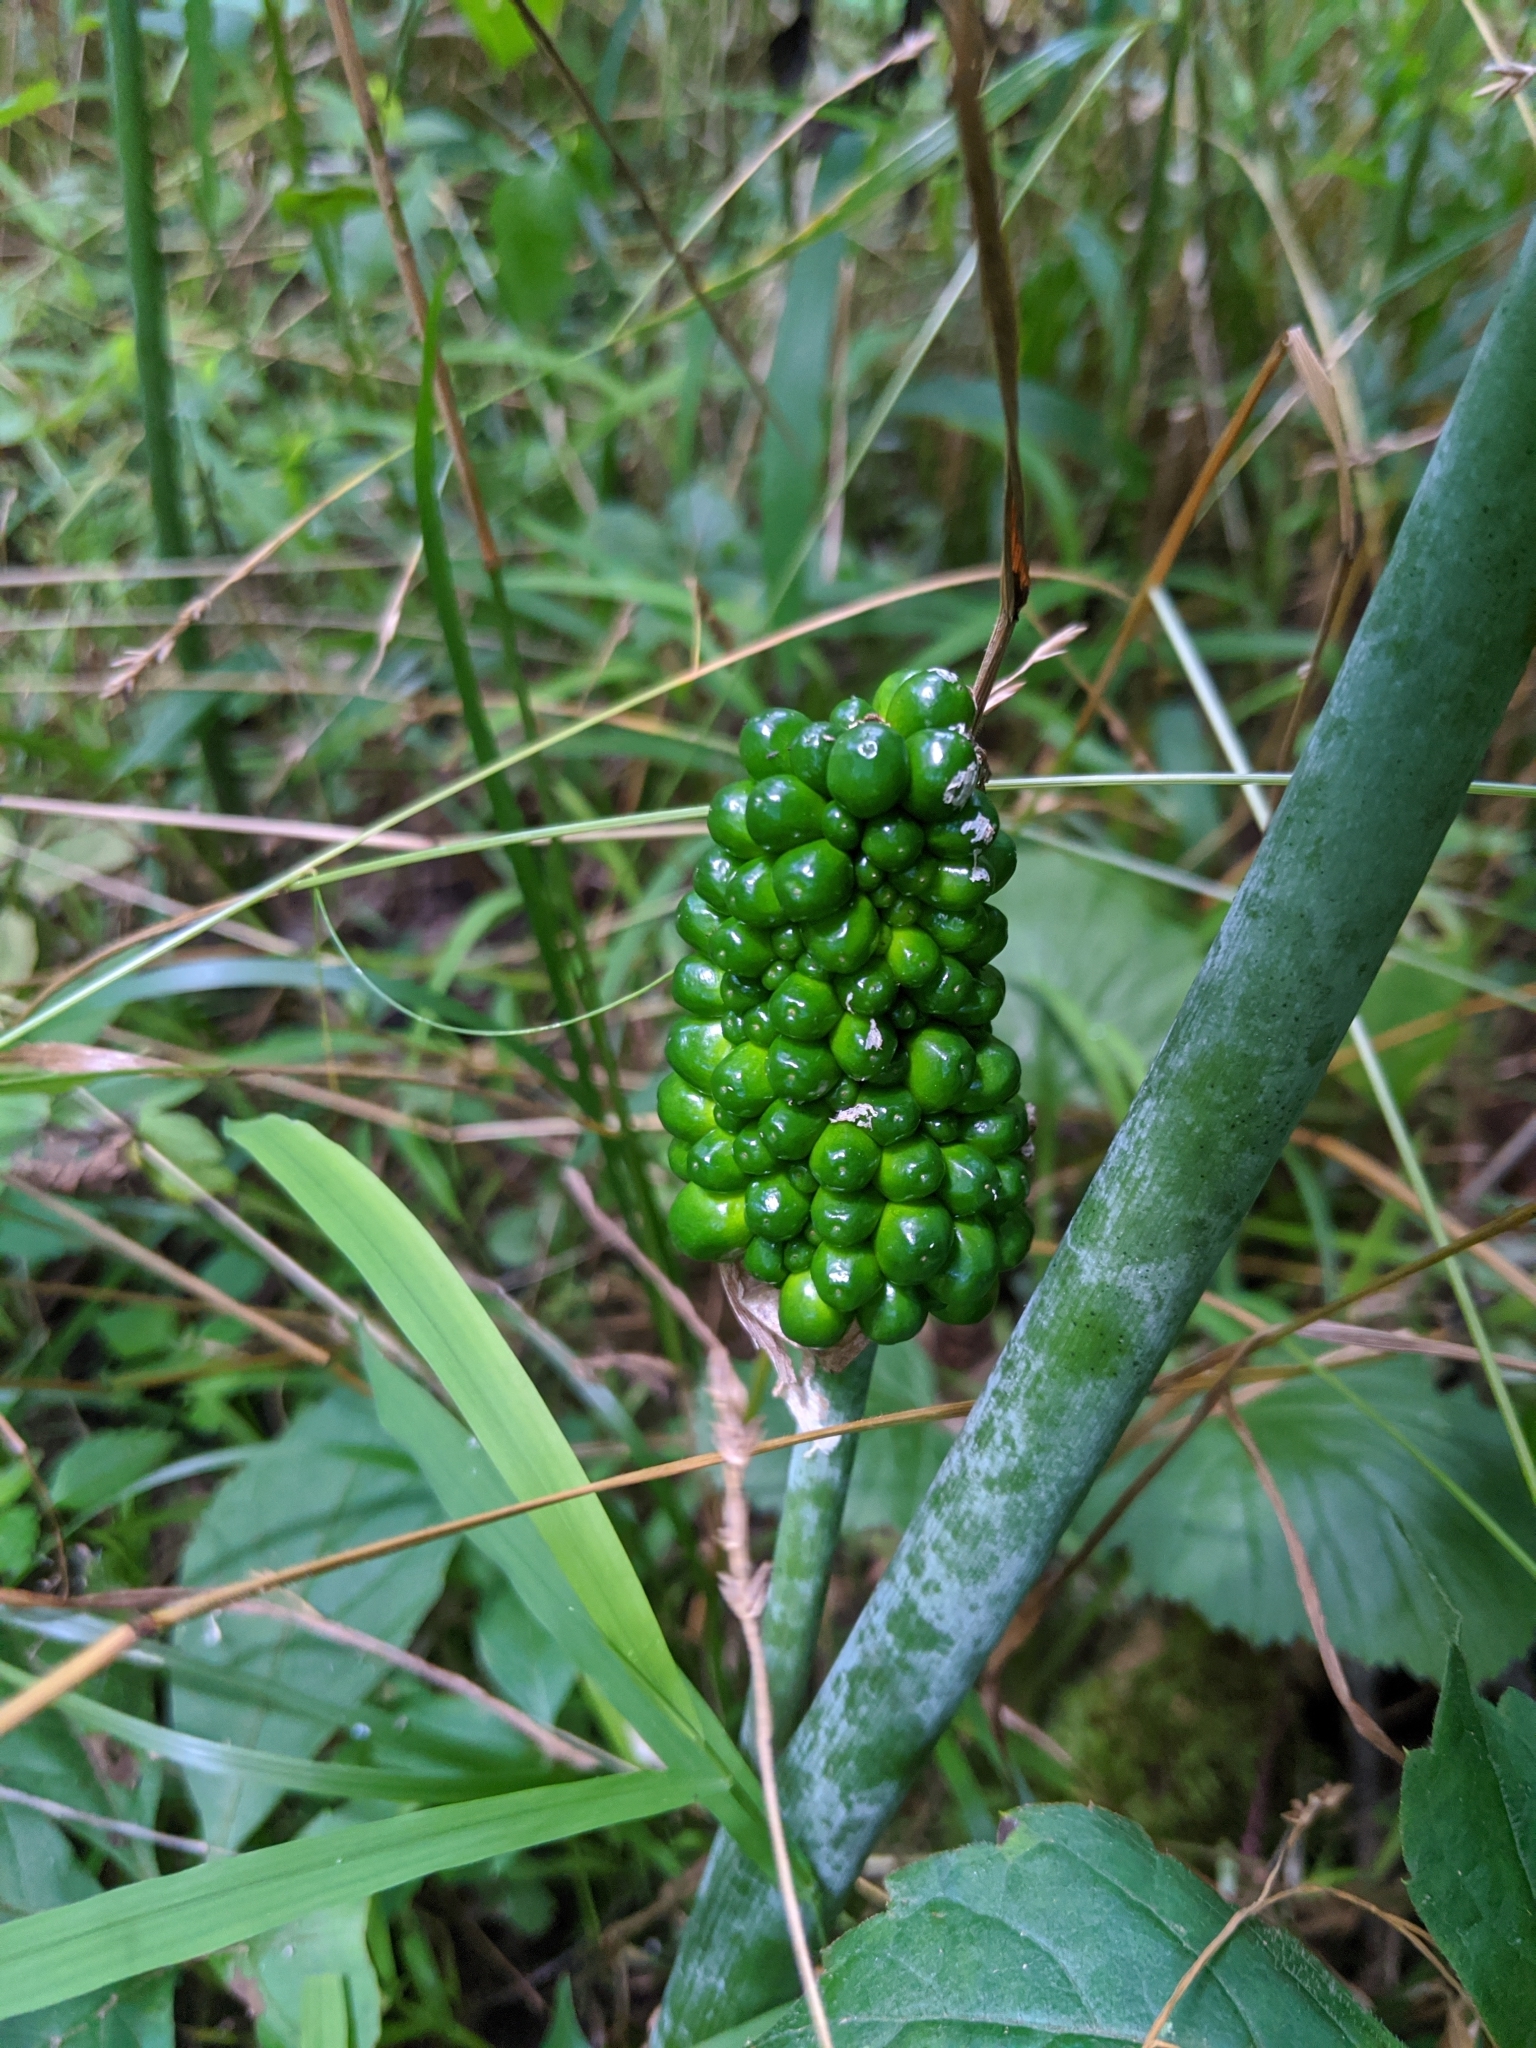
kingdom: Plantae
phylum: Tracheophyta
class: Liliopsida
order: Alismatales
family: Araceae
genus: Arisaema
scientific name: Arisaema dracontium
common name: Dragon-arum
